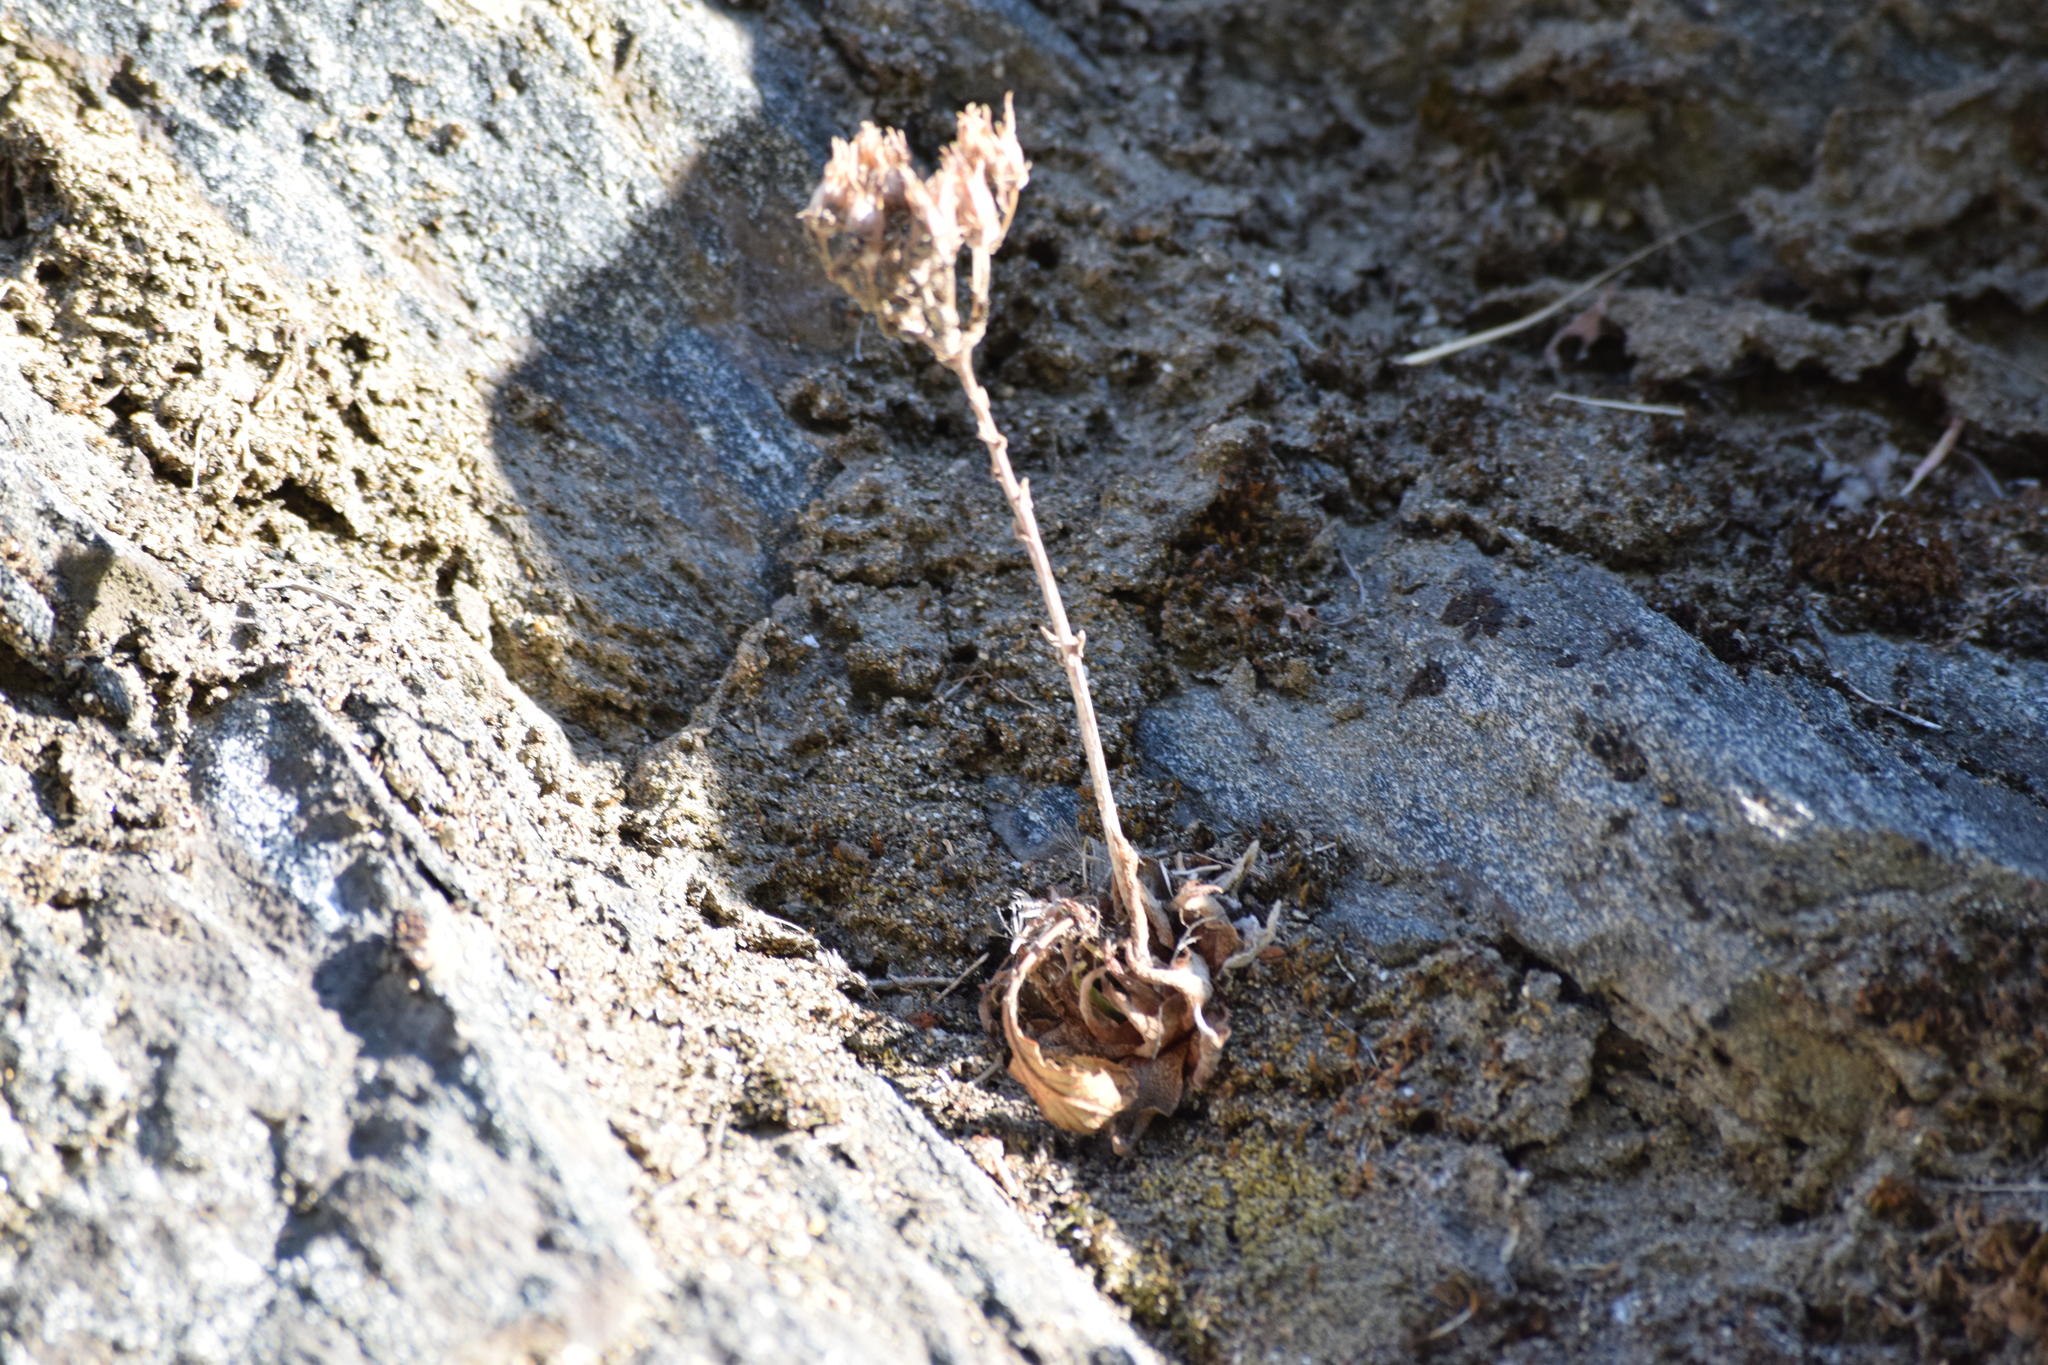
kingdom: Plantae
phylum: Tracheophyta
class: Magnoliopsida
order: Saxifragales
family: Crassulaceae
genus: Dudleya
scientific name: Dudleya cymosa
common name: Canyon dudleya
